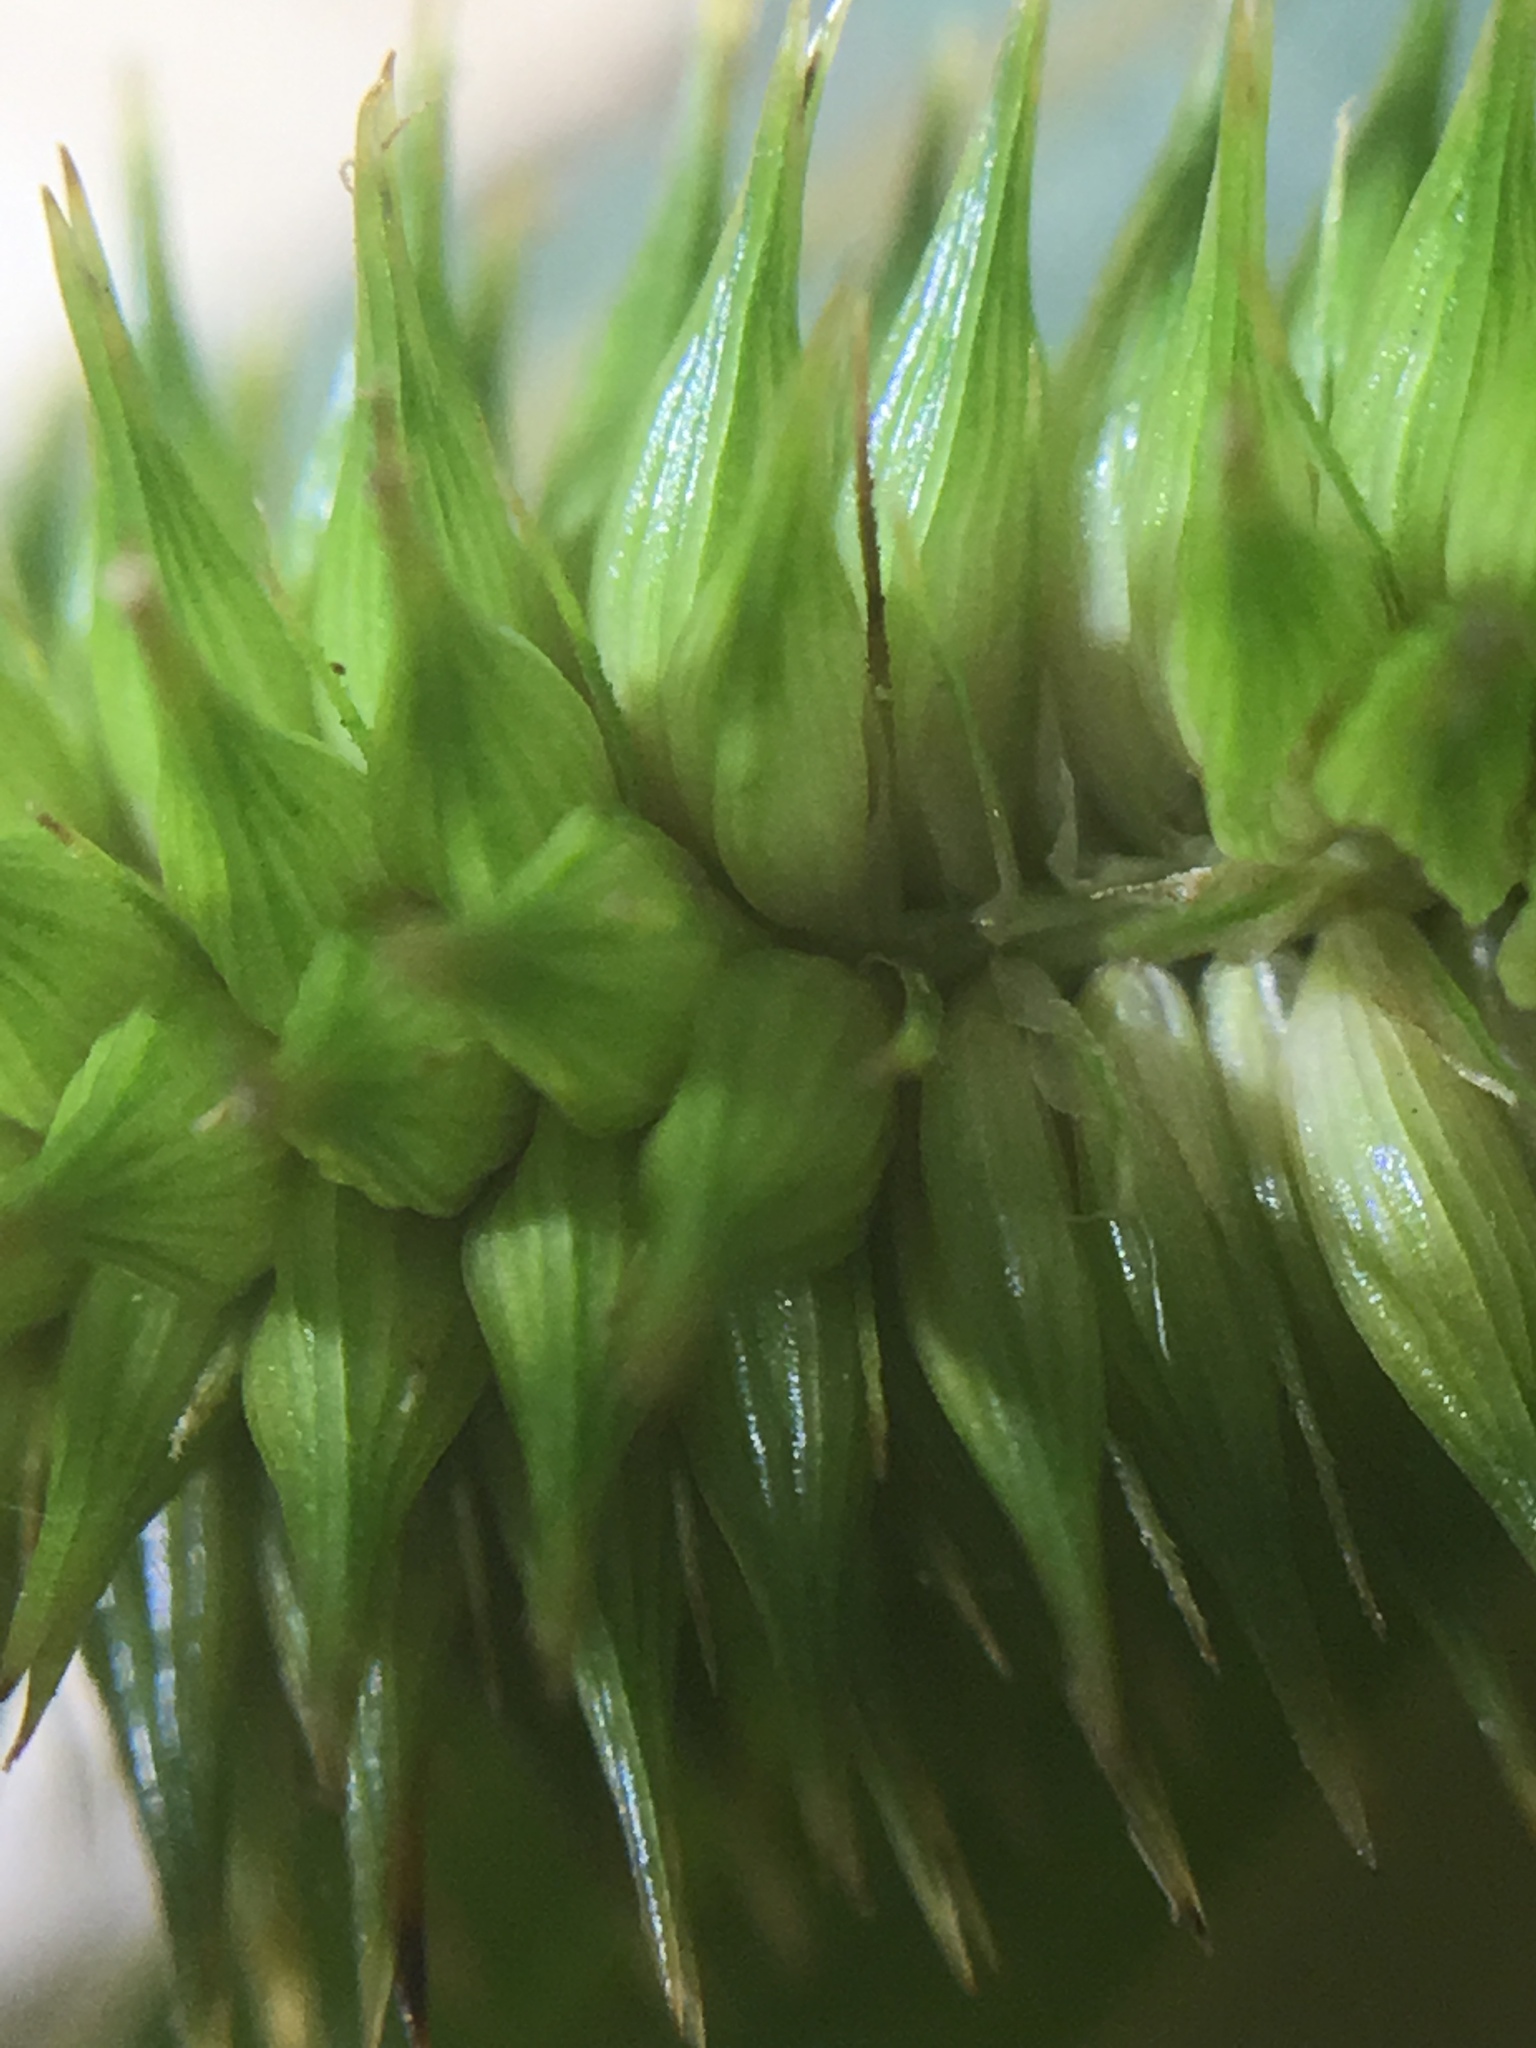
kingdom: Plantae
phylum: Tracheophyta
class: Liliopsida
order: Poales
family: Cyperaceae
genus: Carex
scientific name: Carex pseudocyperus
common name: Cyperus sedge
